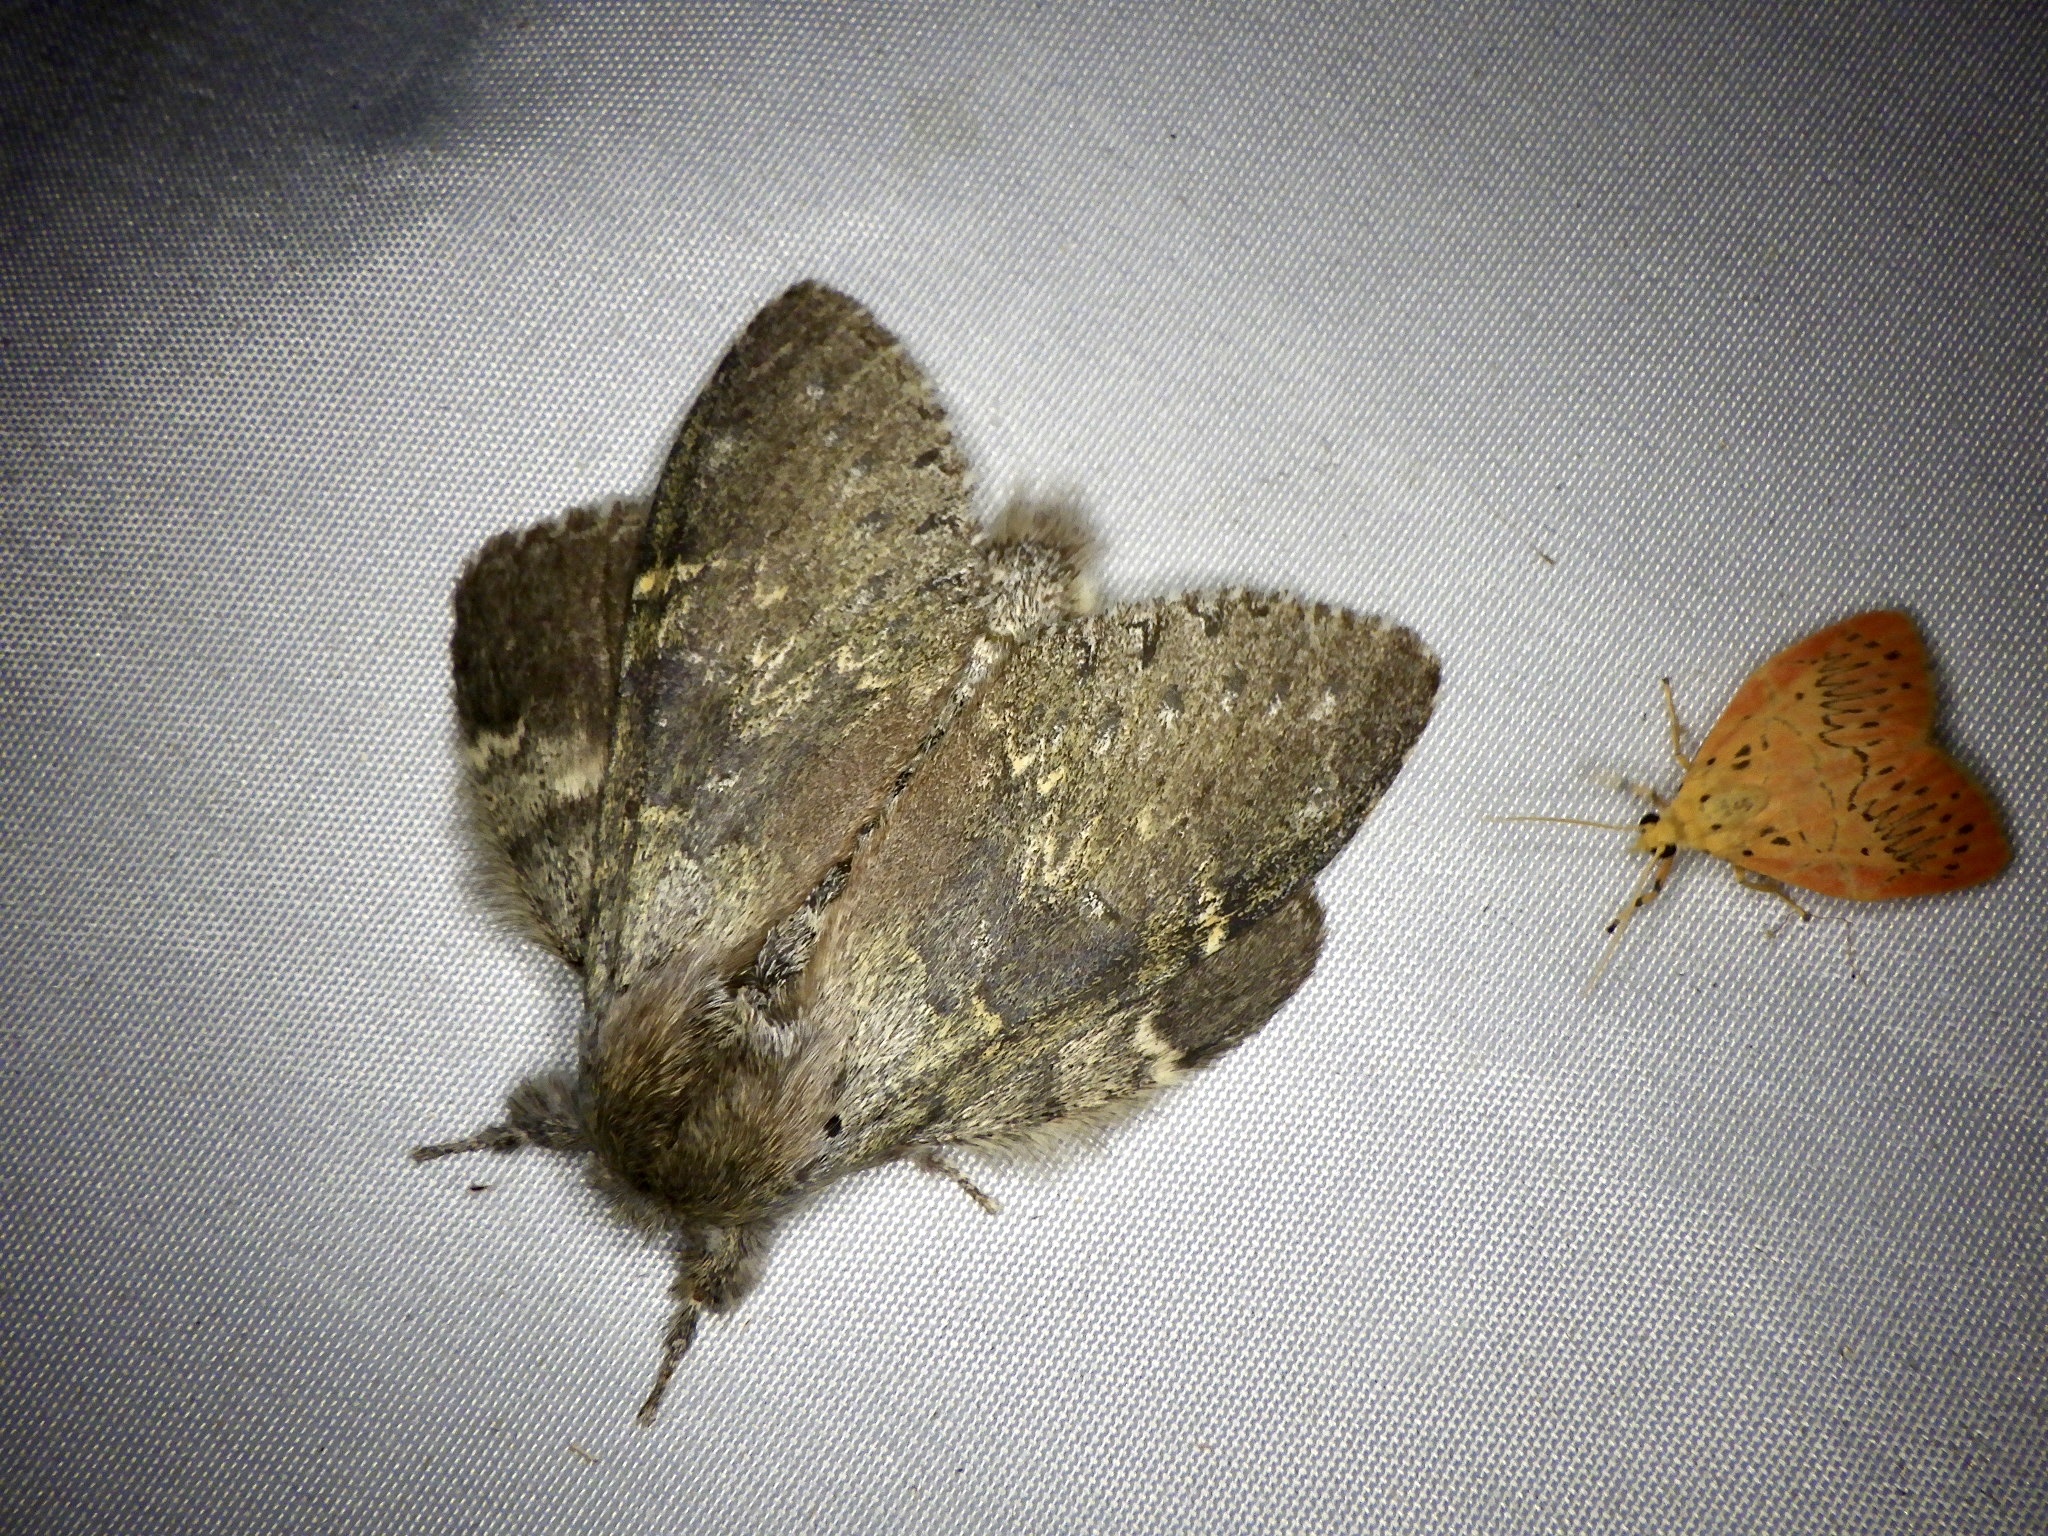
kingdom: Animalia
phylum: Arthropoda
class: Insecta
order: Lepidoptera
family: Notodontidae
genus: Stauropus
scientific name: Stauropus fagi
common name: Lobster moth
